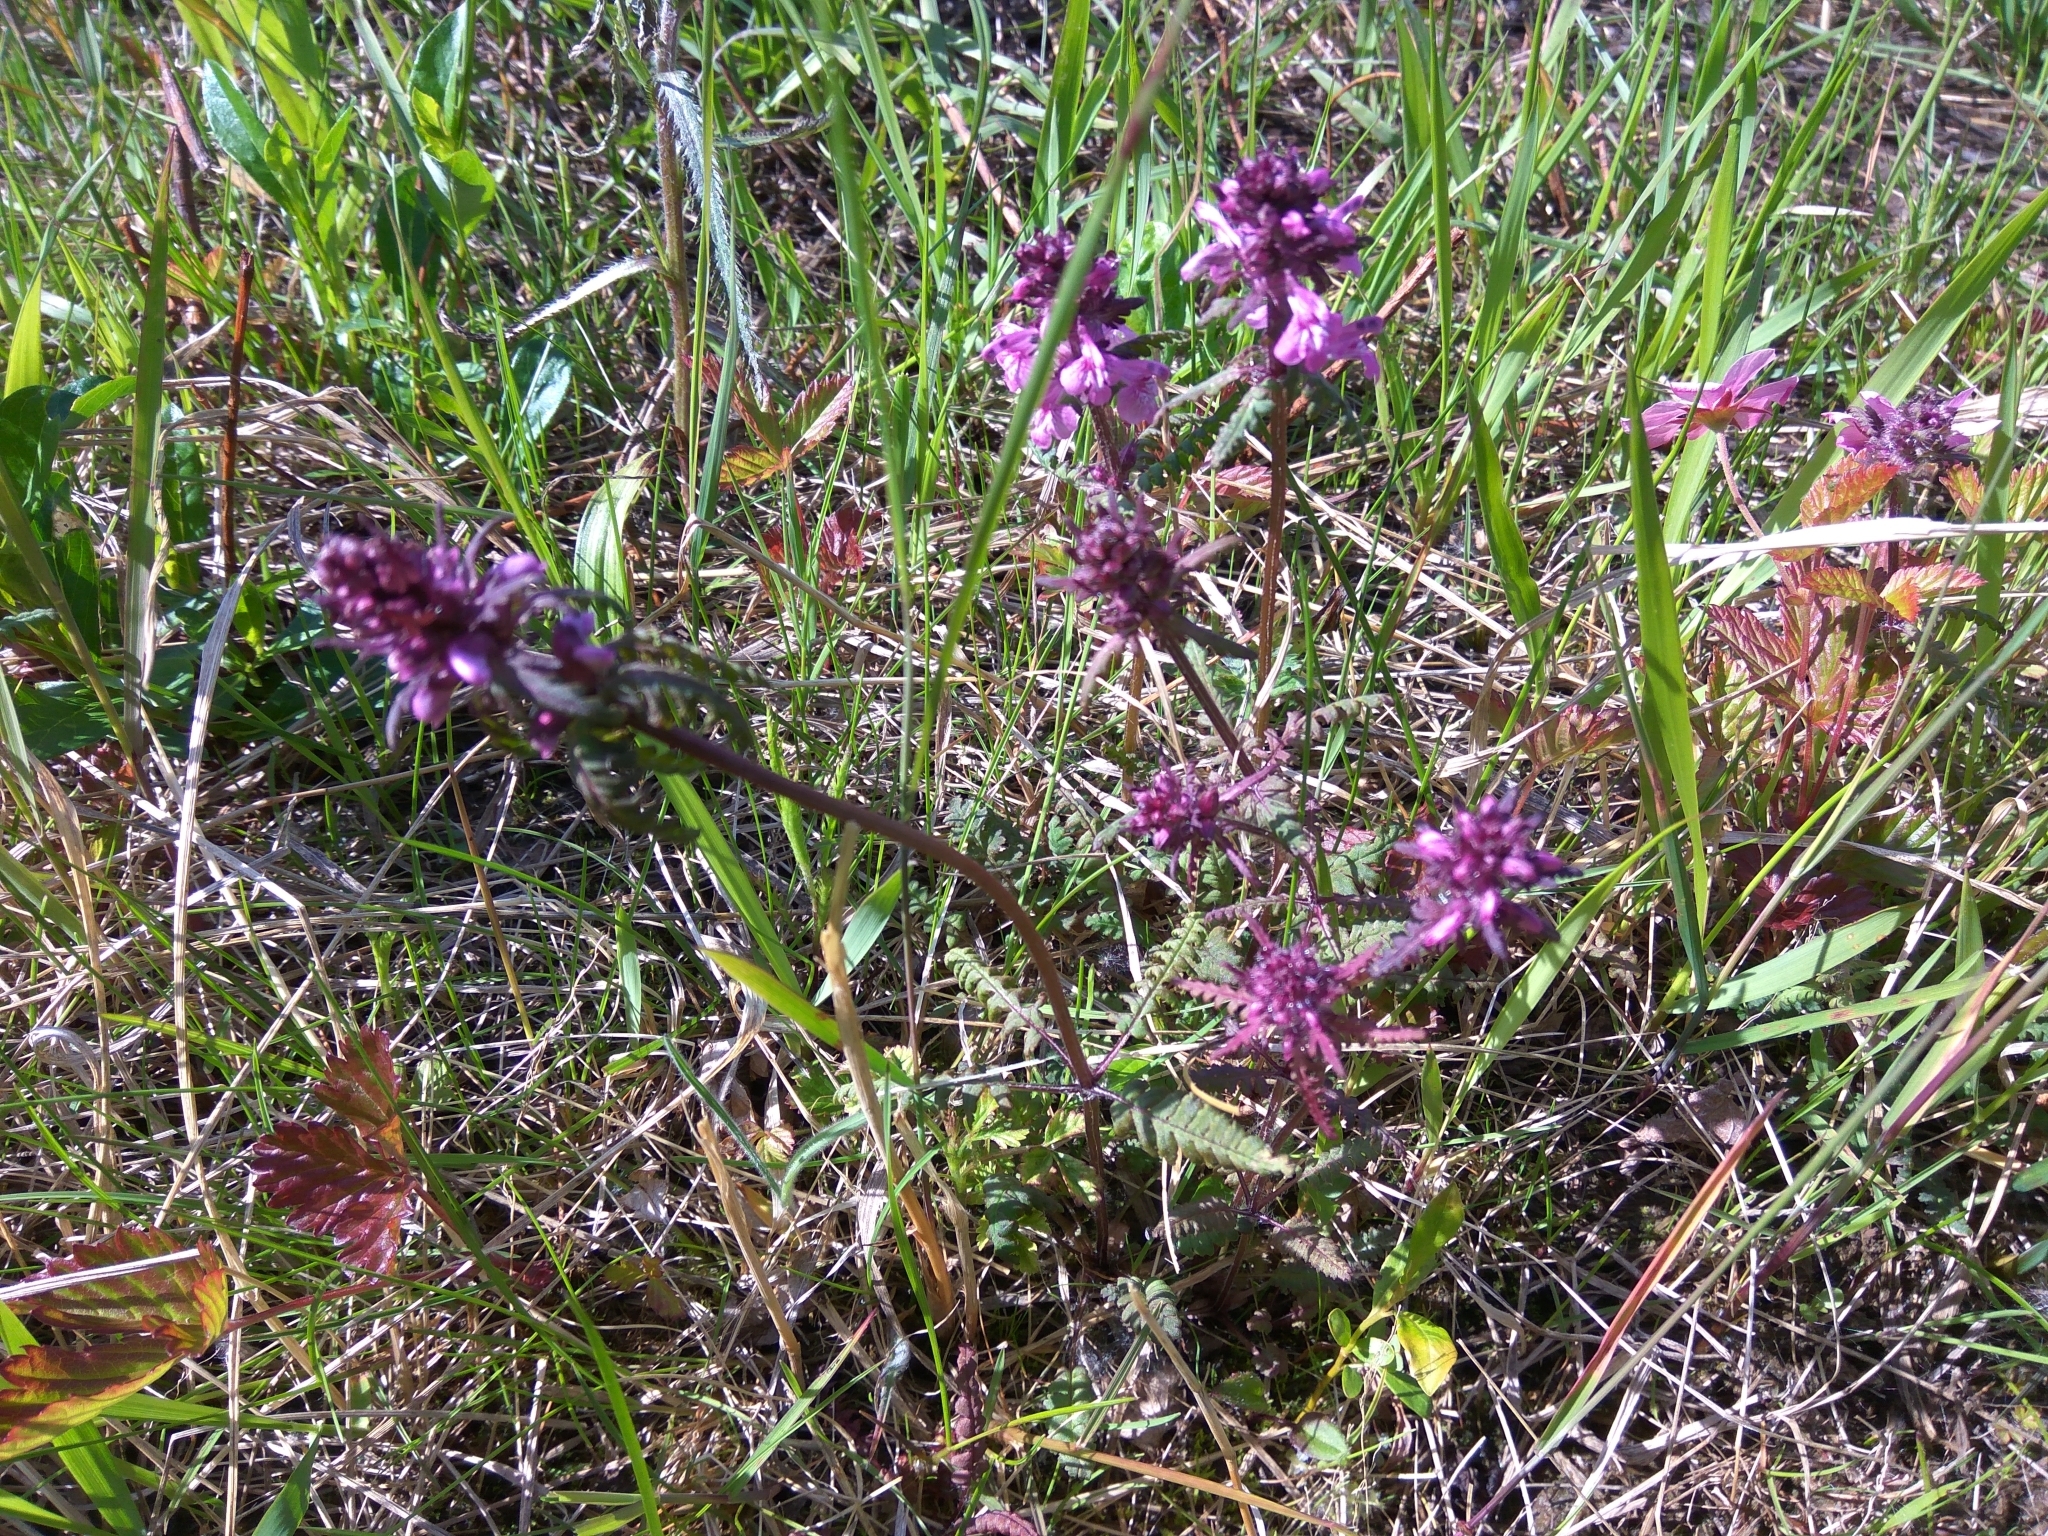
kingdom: Plantae
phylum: Tracheophyta
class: Magnoliopsida
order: Lamiales
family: Orobanchaceae
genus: Pedicularis
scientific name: Pedicularis verticillata
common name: Whorled lousewort
